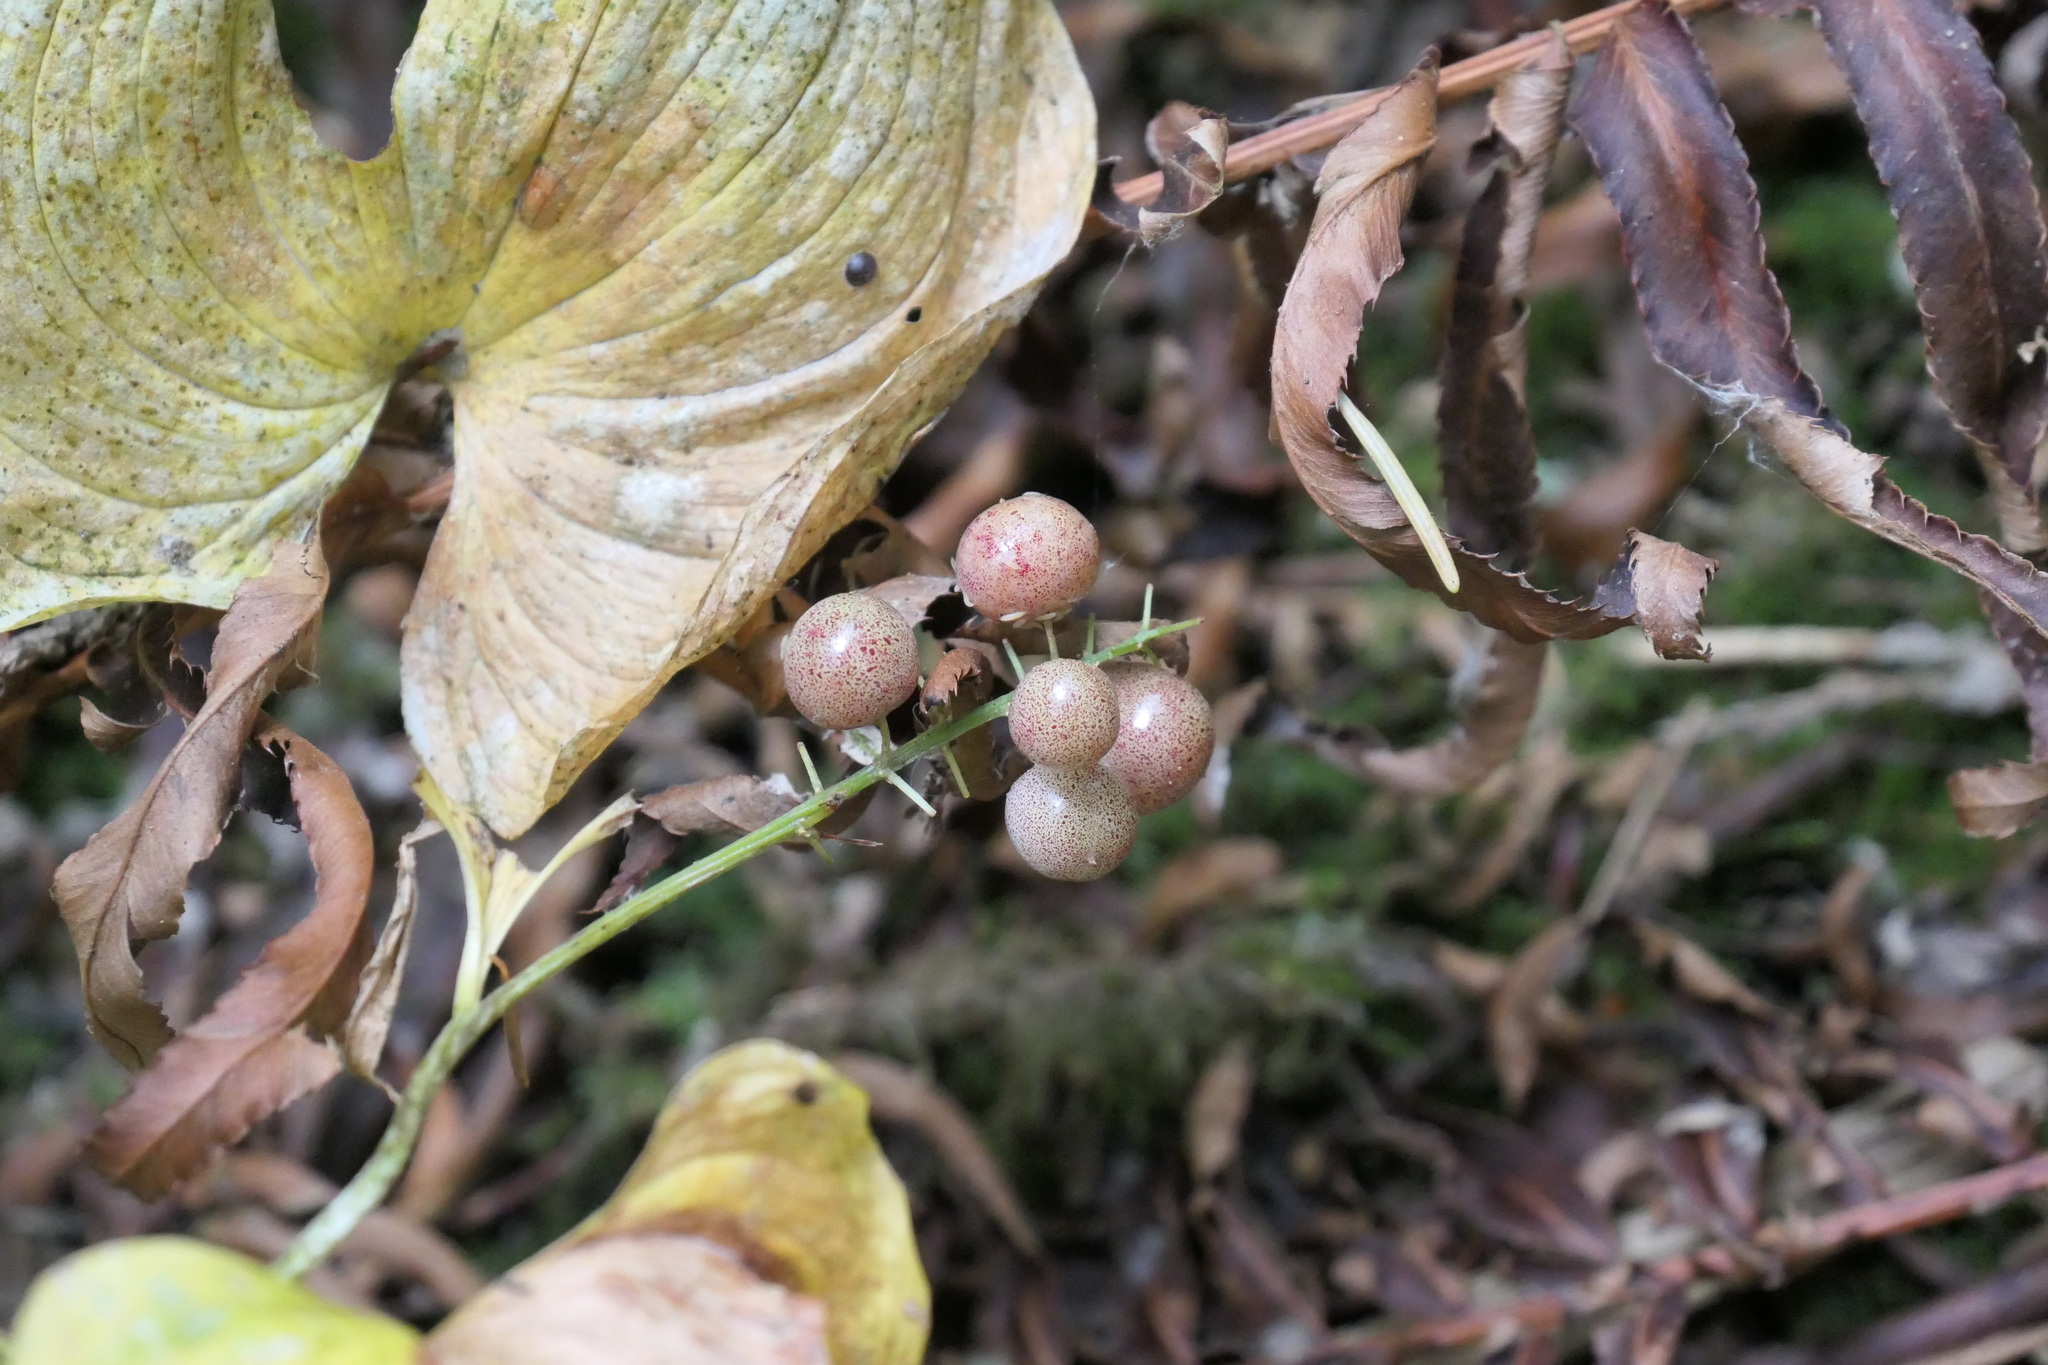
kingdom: Plantae
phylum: Tracheophyta
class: Liliopsida
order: Asparagales
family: Asparagaceae
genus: Maianthemum
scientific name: Maianthemum dilatatum
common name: False lily-of-the-valley
